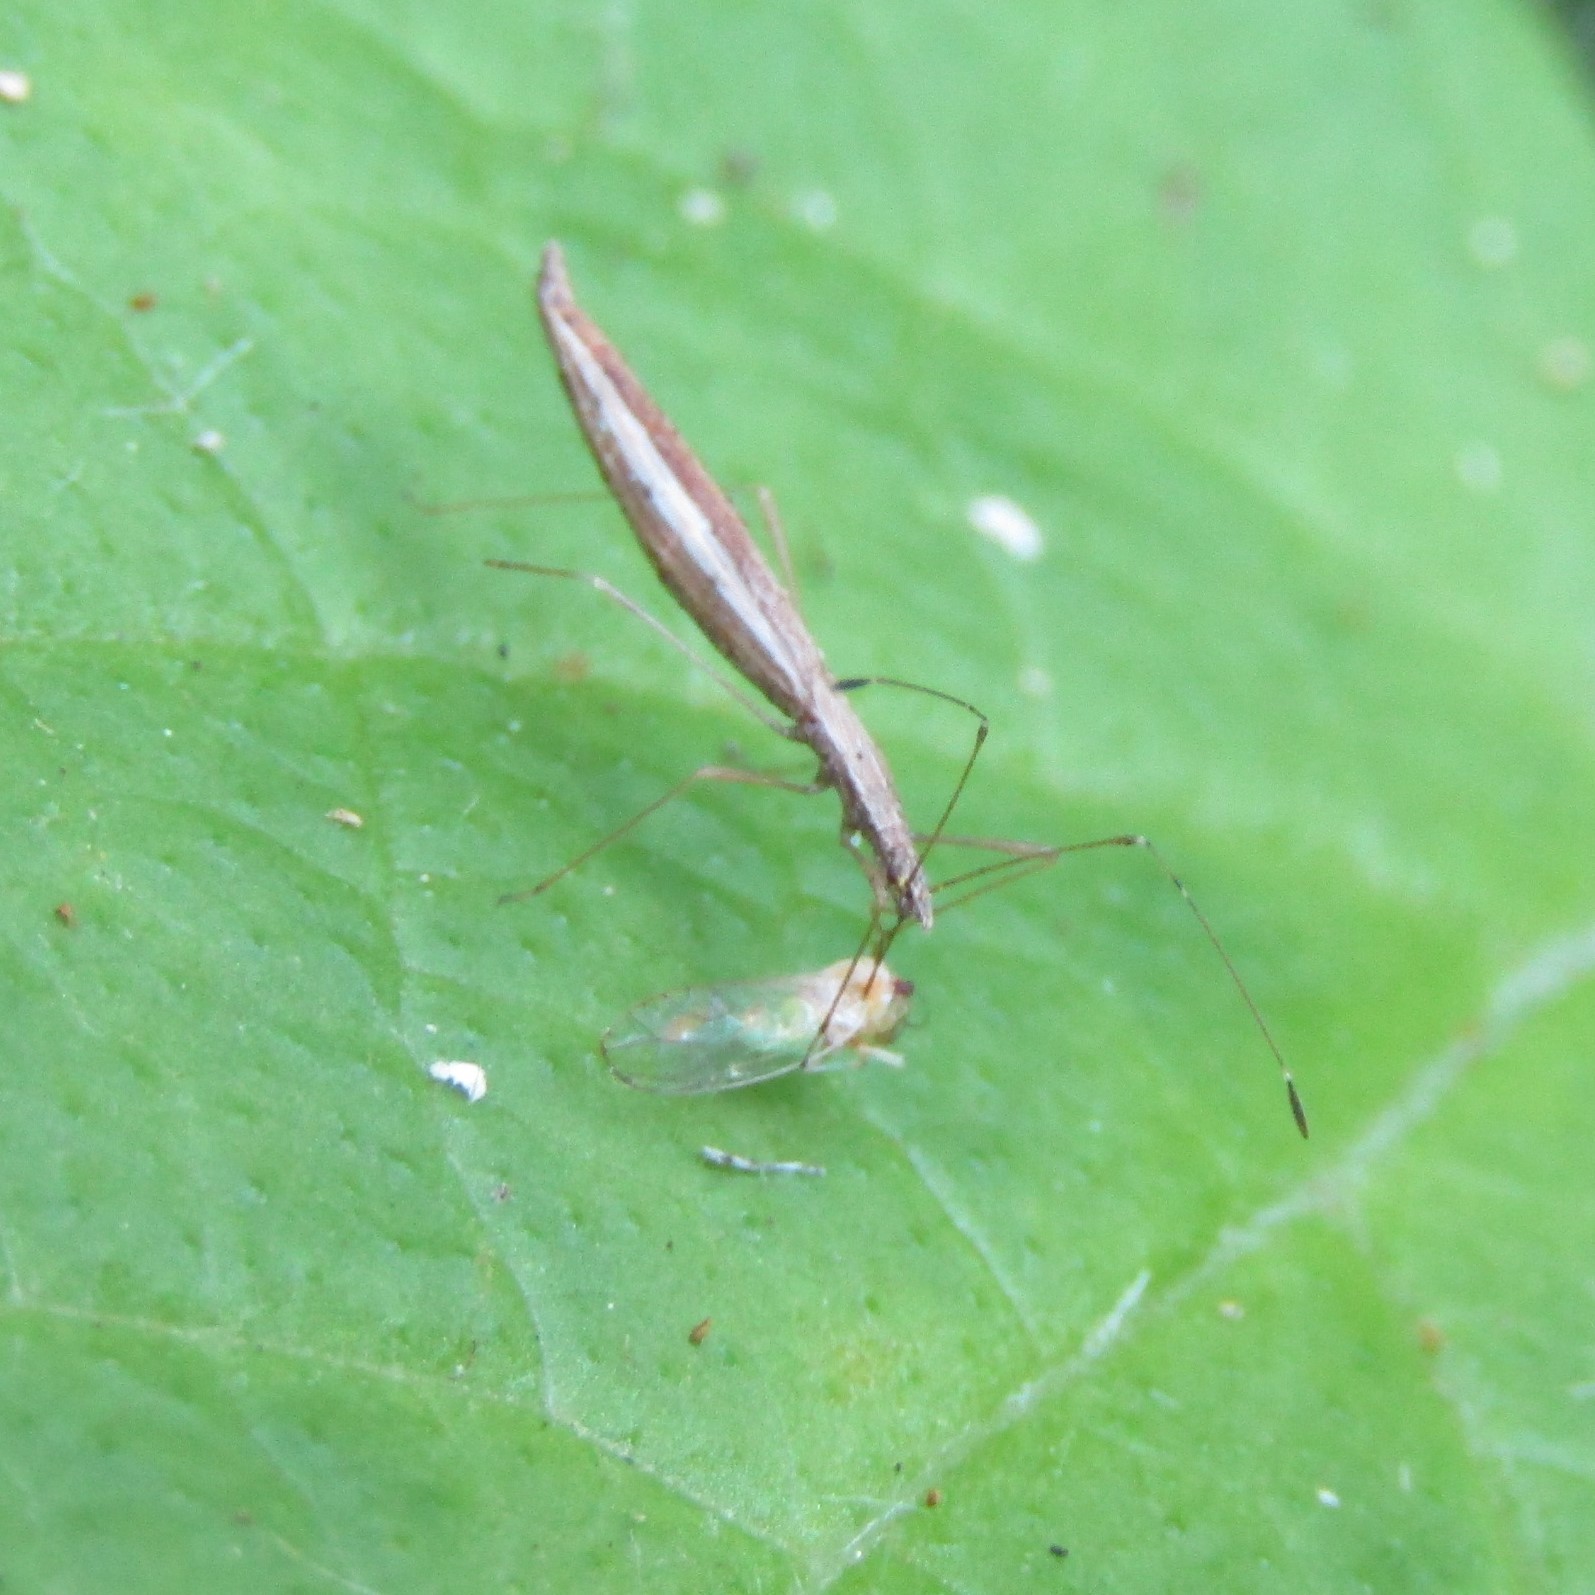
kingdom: Animalia
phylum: Arthropoda
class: Insecta
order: Hemiptera
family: Berytidae
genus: Bezu
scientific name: Bezu wakefieldi
